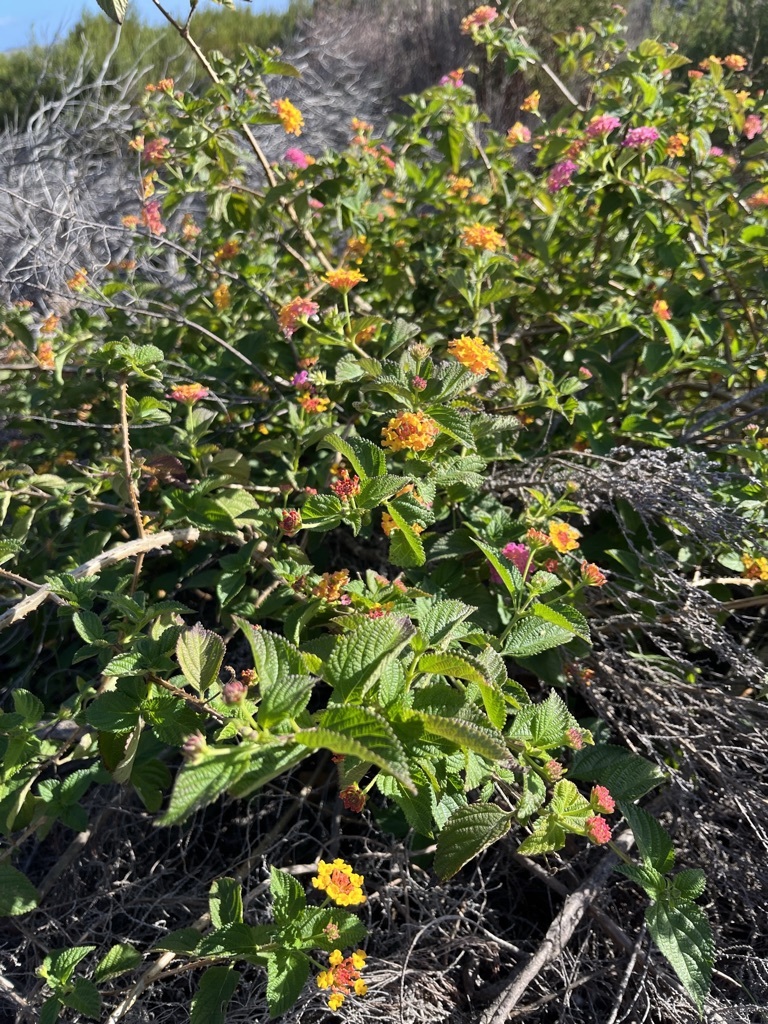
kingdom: Plantae
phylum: Tracheophyta
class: Magnoliopsida
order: Lamiales
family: Verbenaceae
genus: Lantana
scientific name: Lantana camara
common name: Lantana
